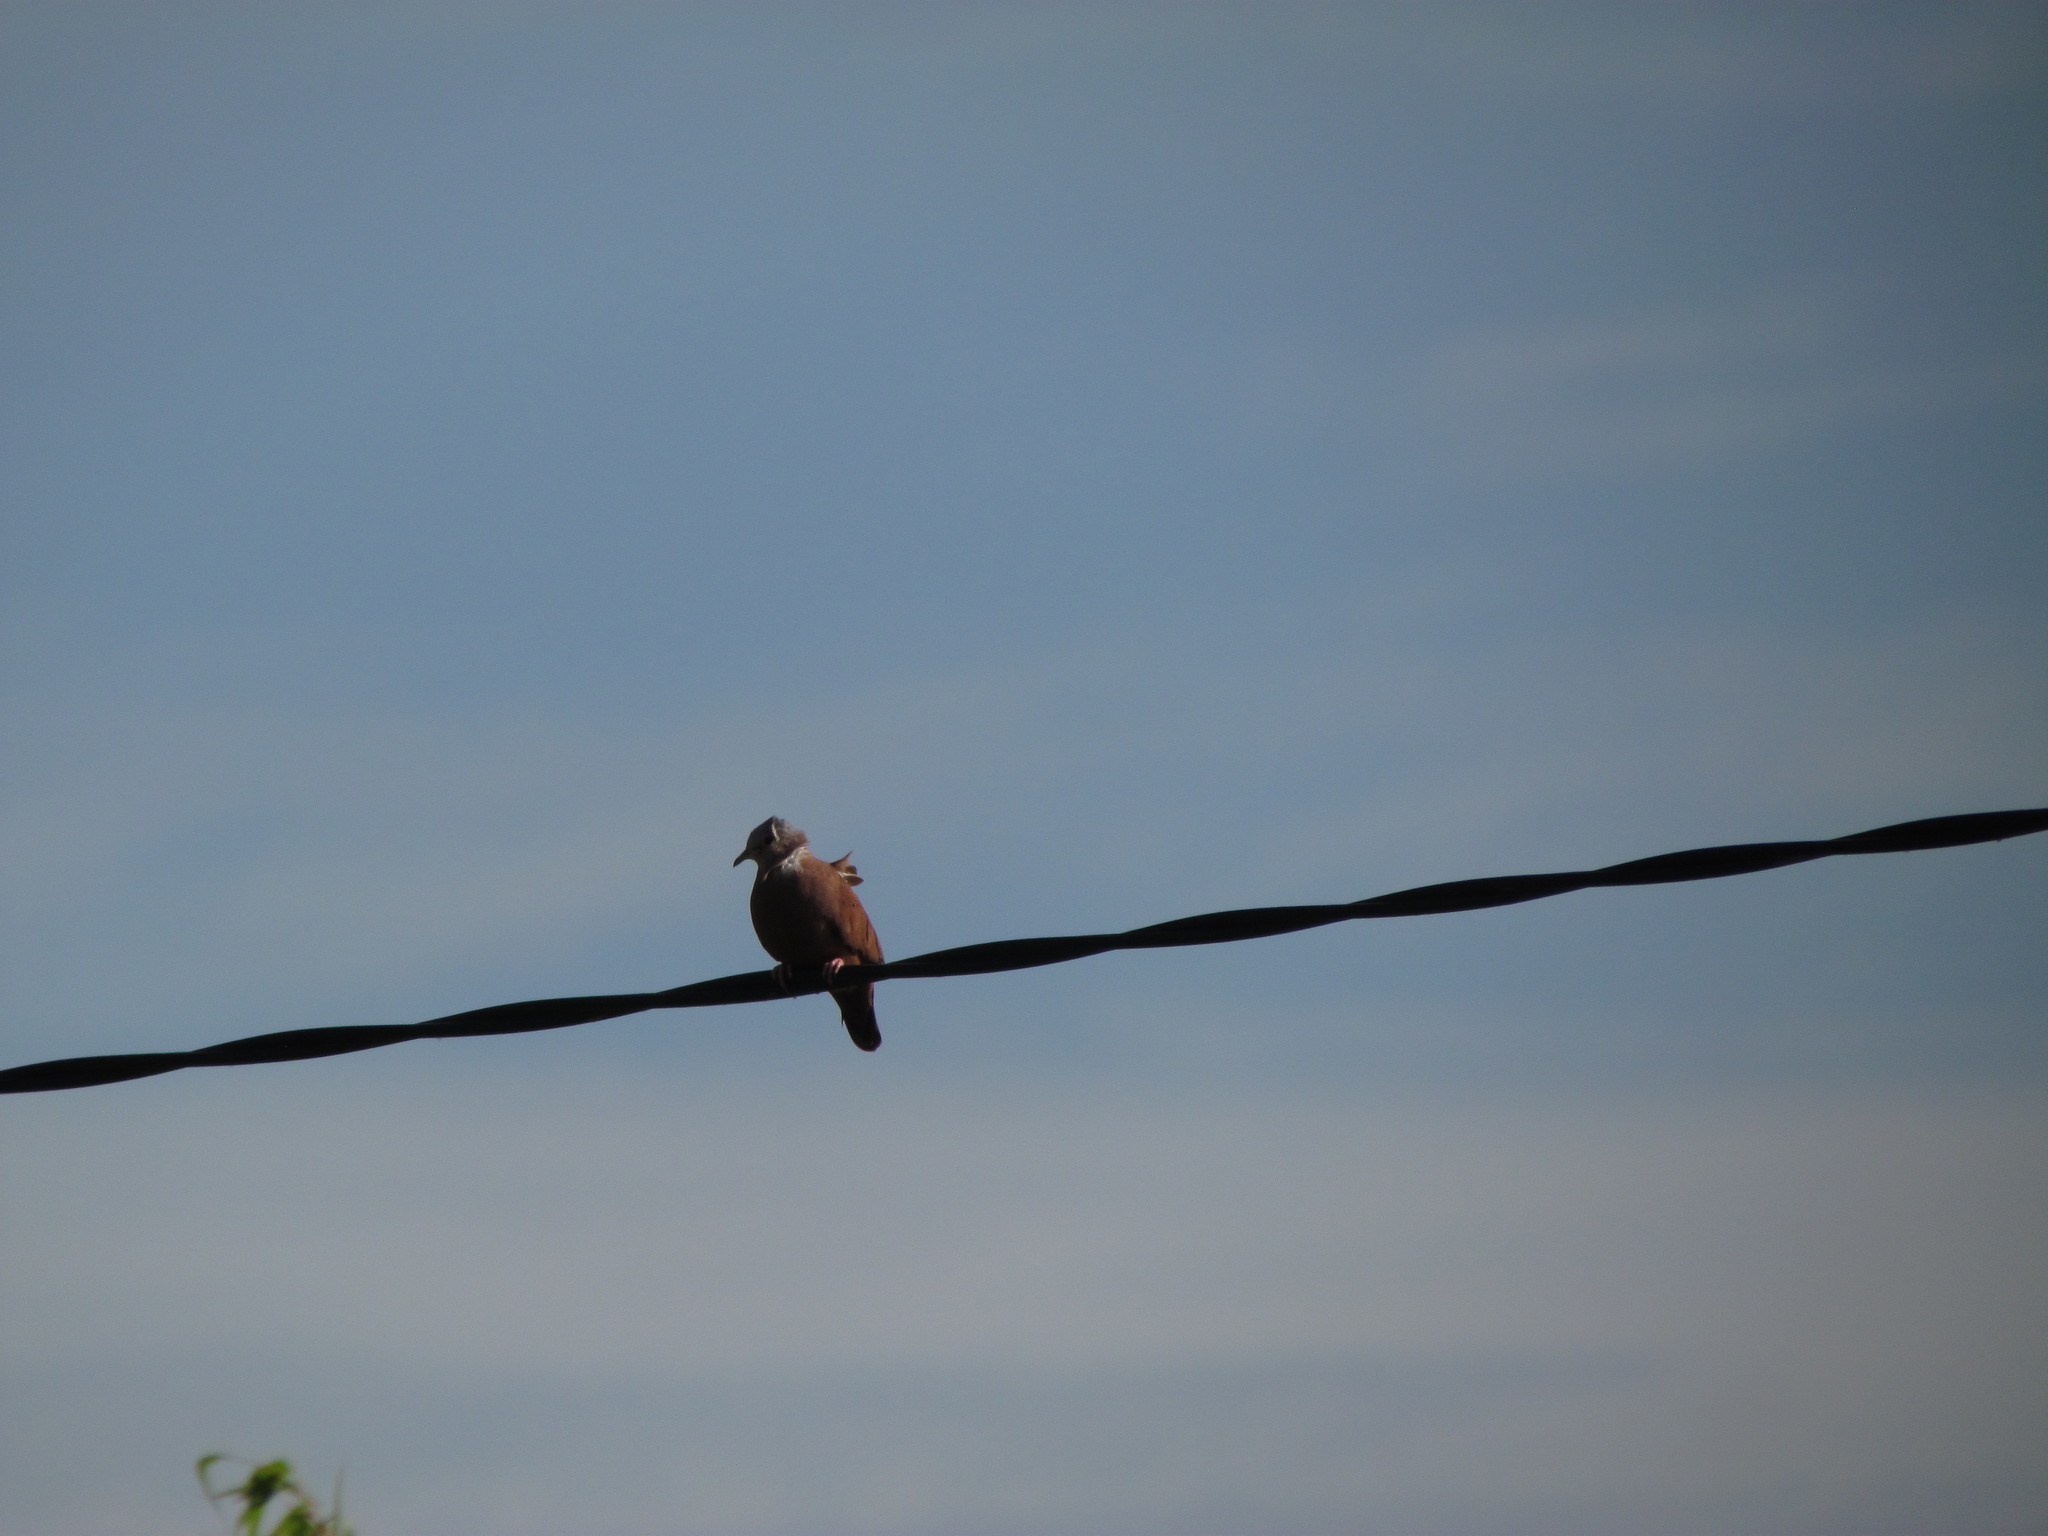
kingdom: Animalia
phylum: Chordata
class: Aves
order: Columbiformes
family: Columbidae
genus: Columbina
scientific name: Columbina talpacoti
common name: Ruddy ground dove
